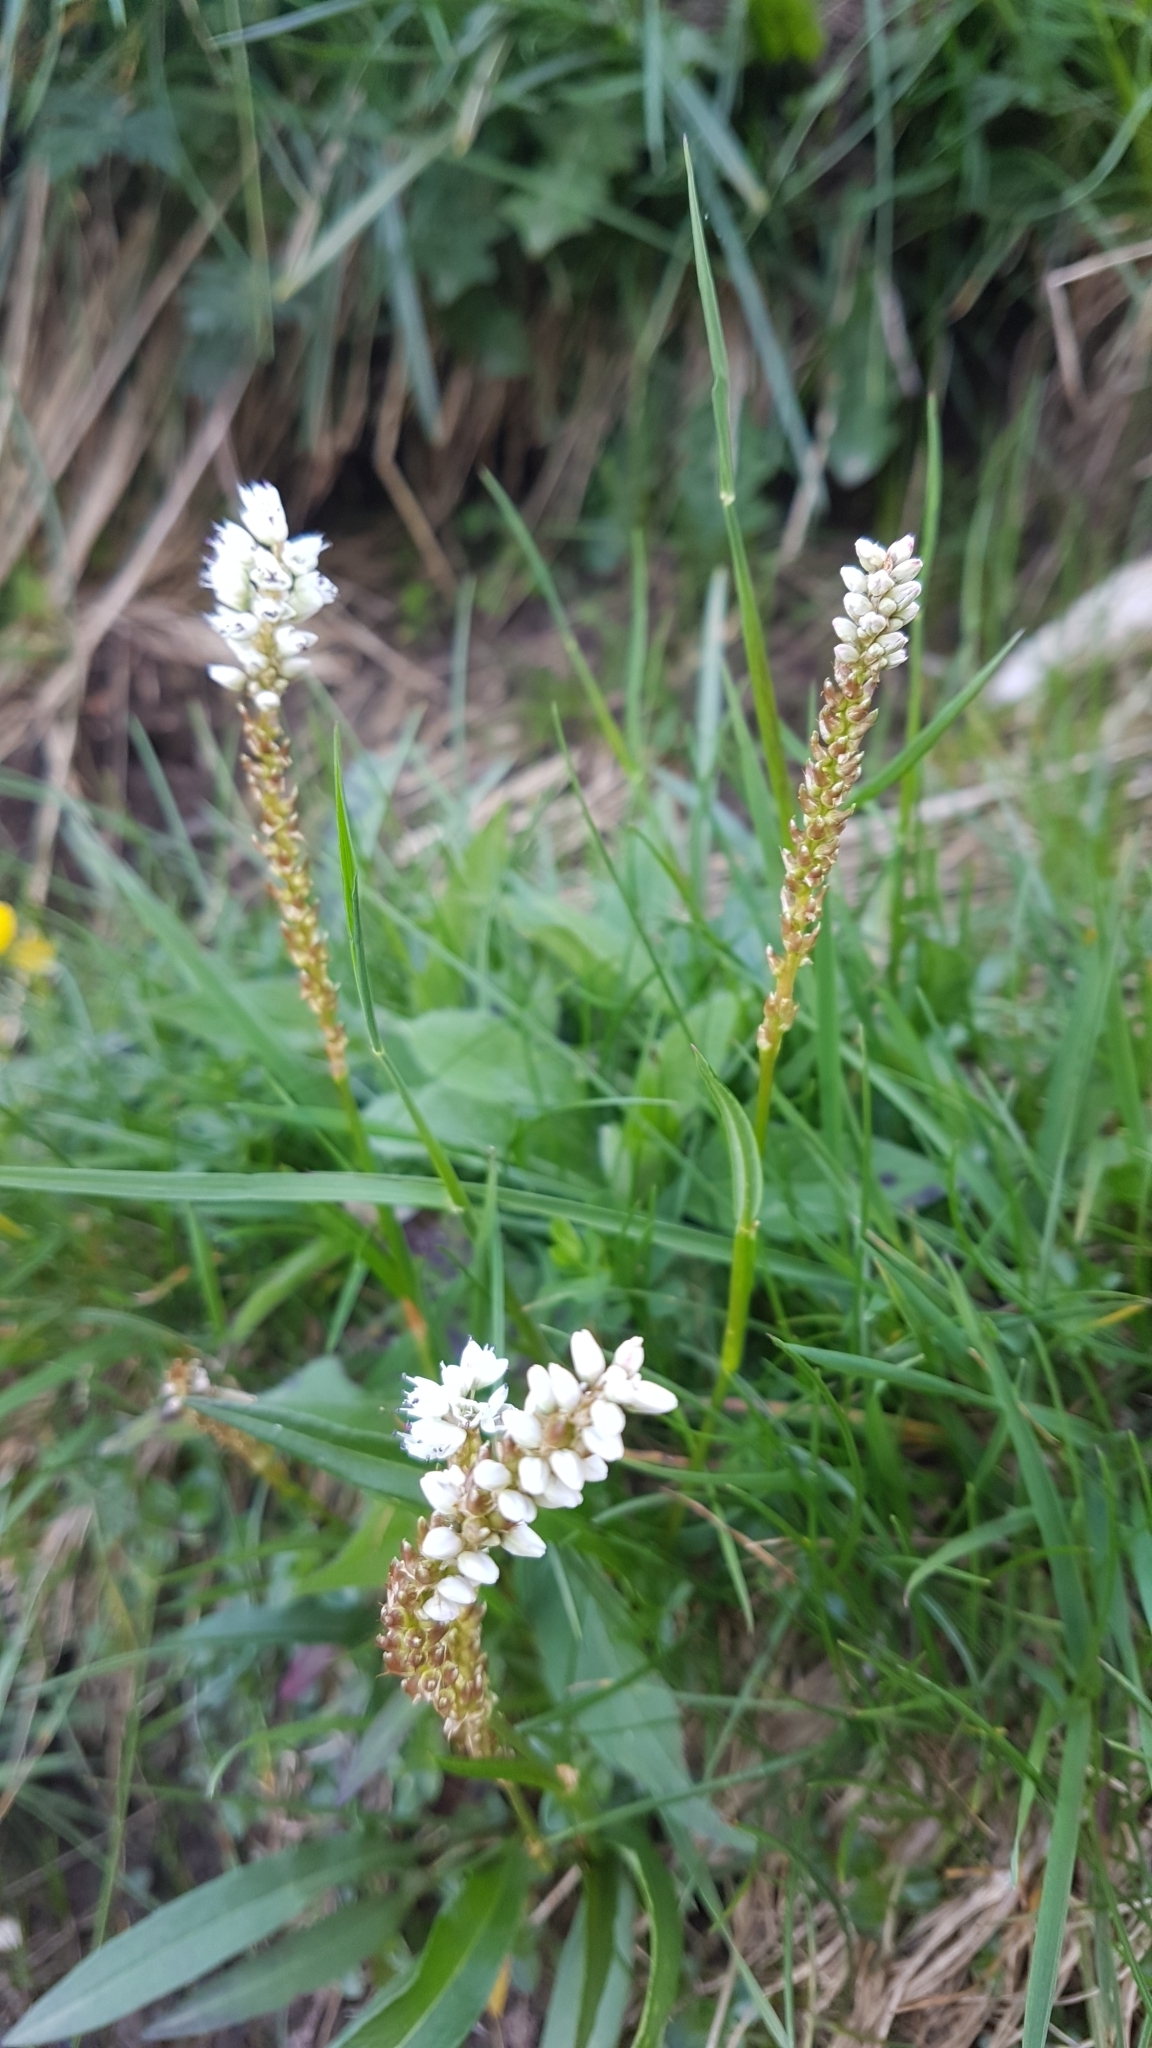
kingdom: Plantae
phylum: Tracheophyta
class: Magnoliopsida
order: Caryophyllales
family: Polygonaceae
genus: Bistorta
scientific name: Bistorta vivipara
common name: Alpine bistort
